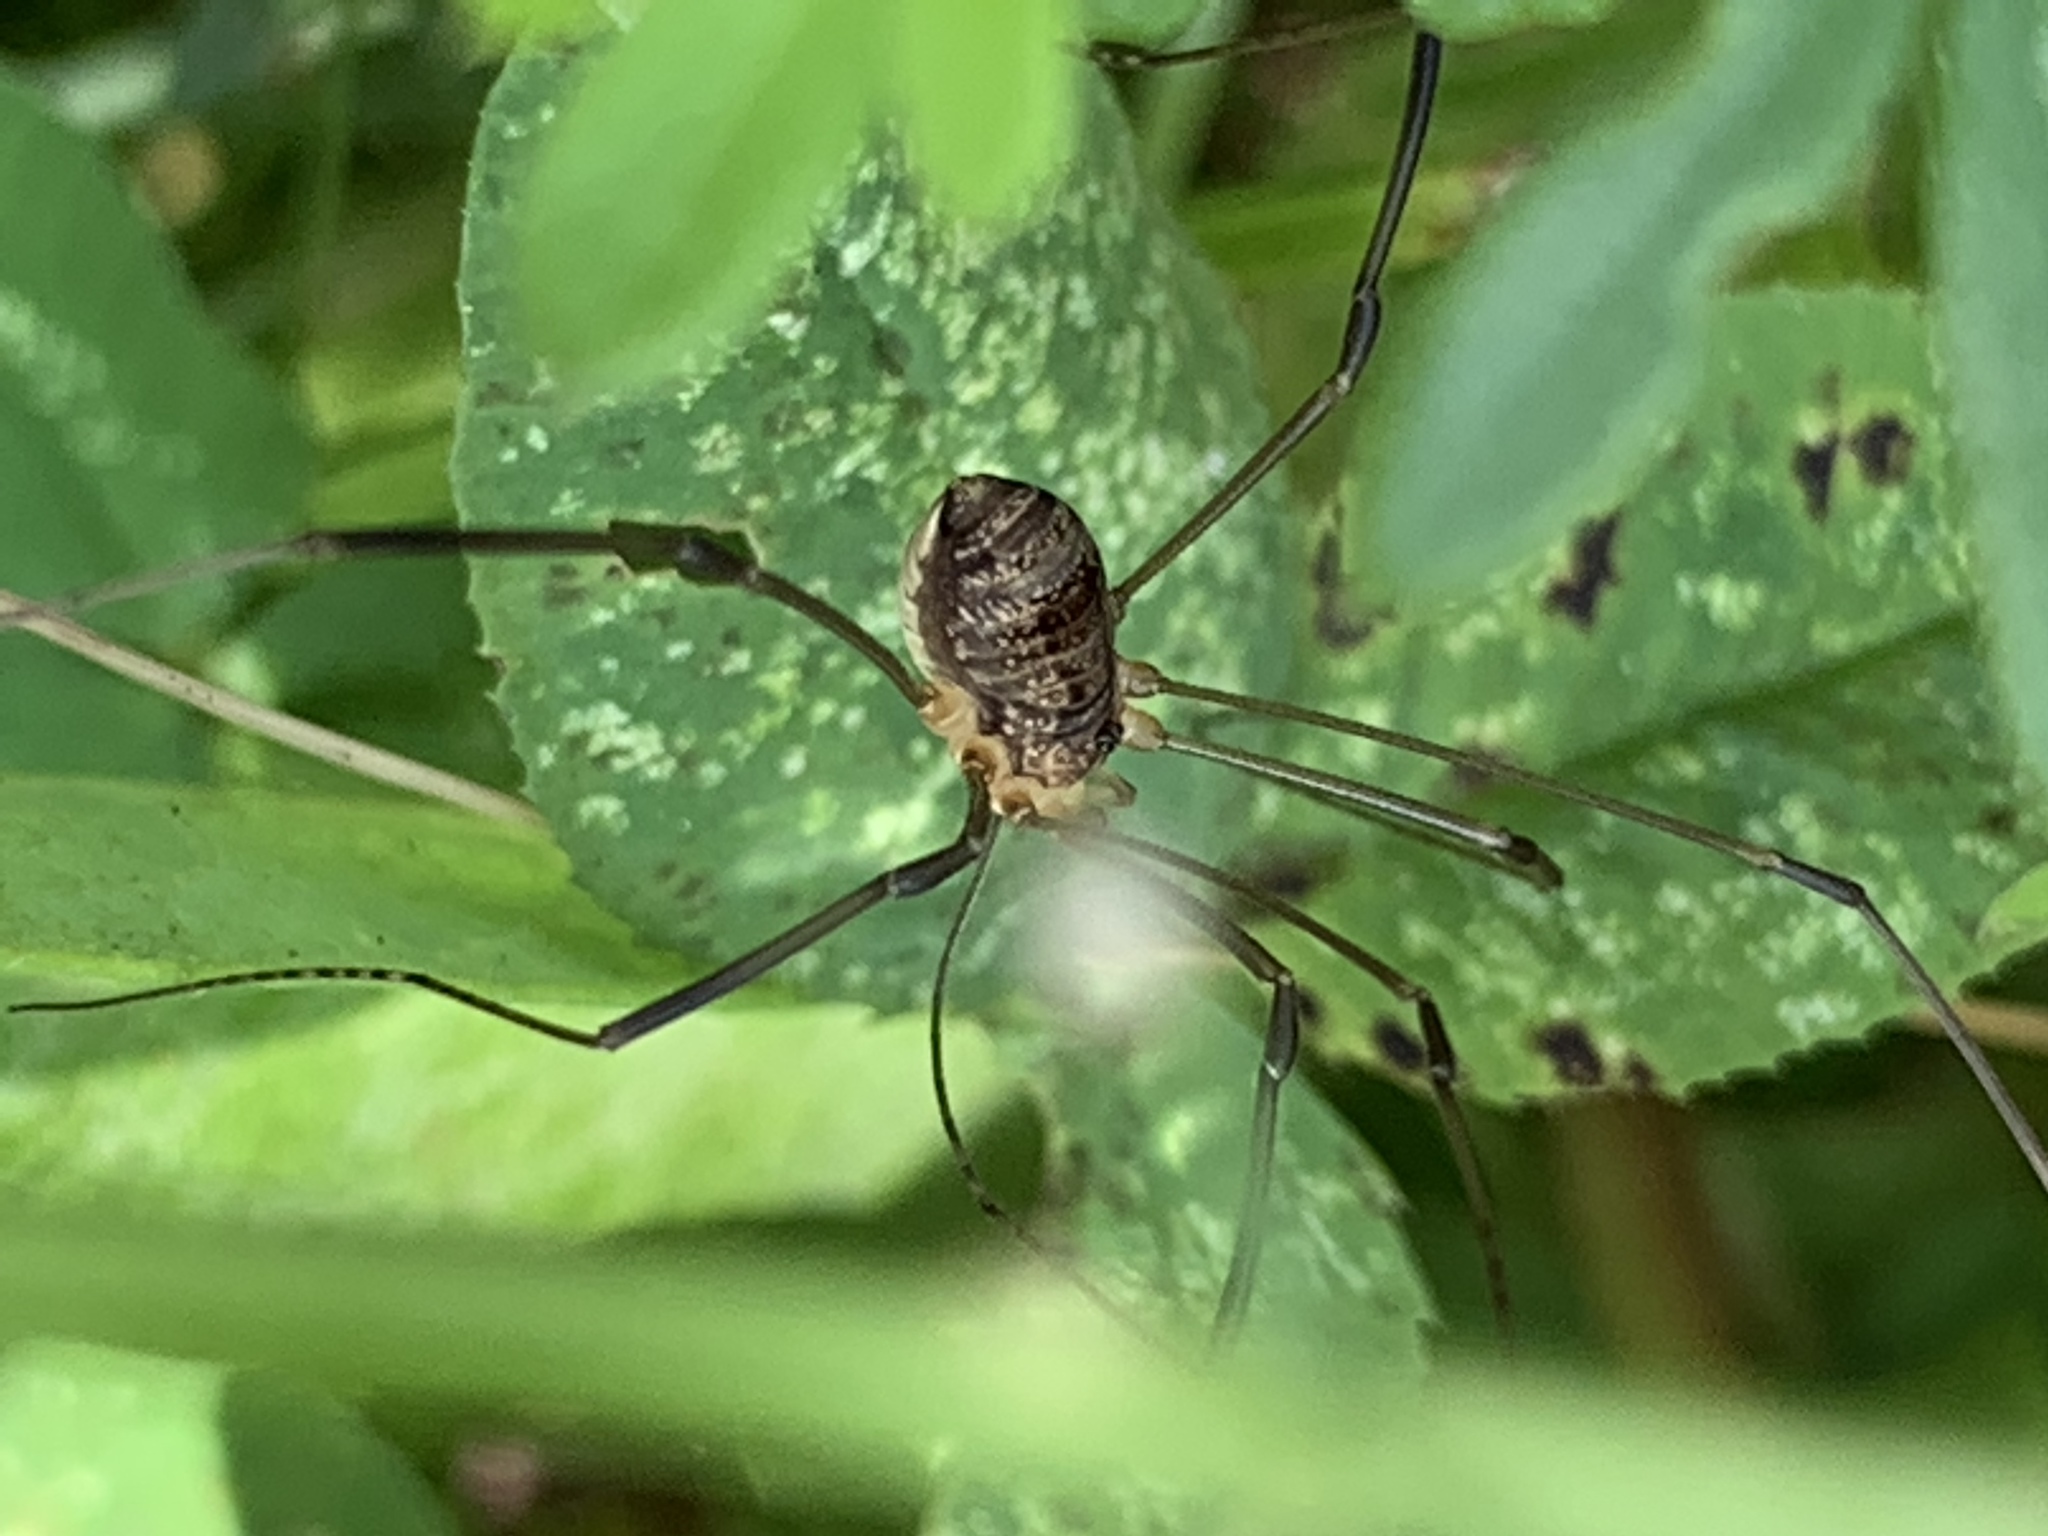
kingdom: Animalia
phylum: Arthropoda
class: Arachnida
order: Opiliones
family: Sclerosomatidae
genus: Leiobunum
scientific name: Leiobunum politum
